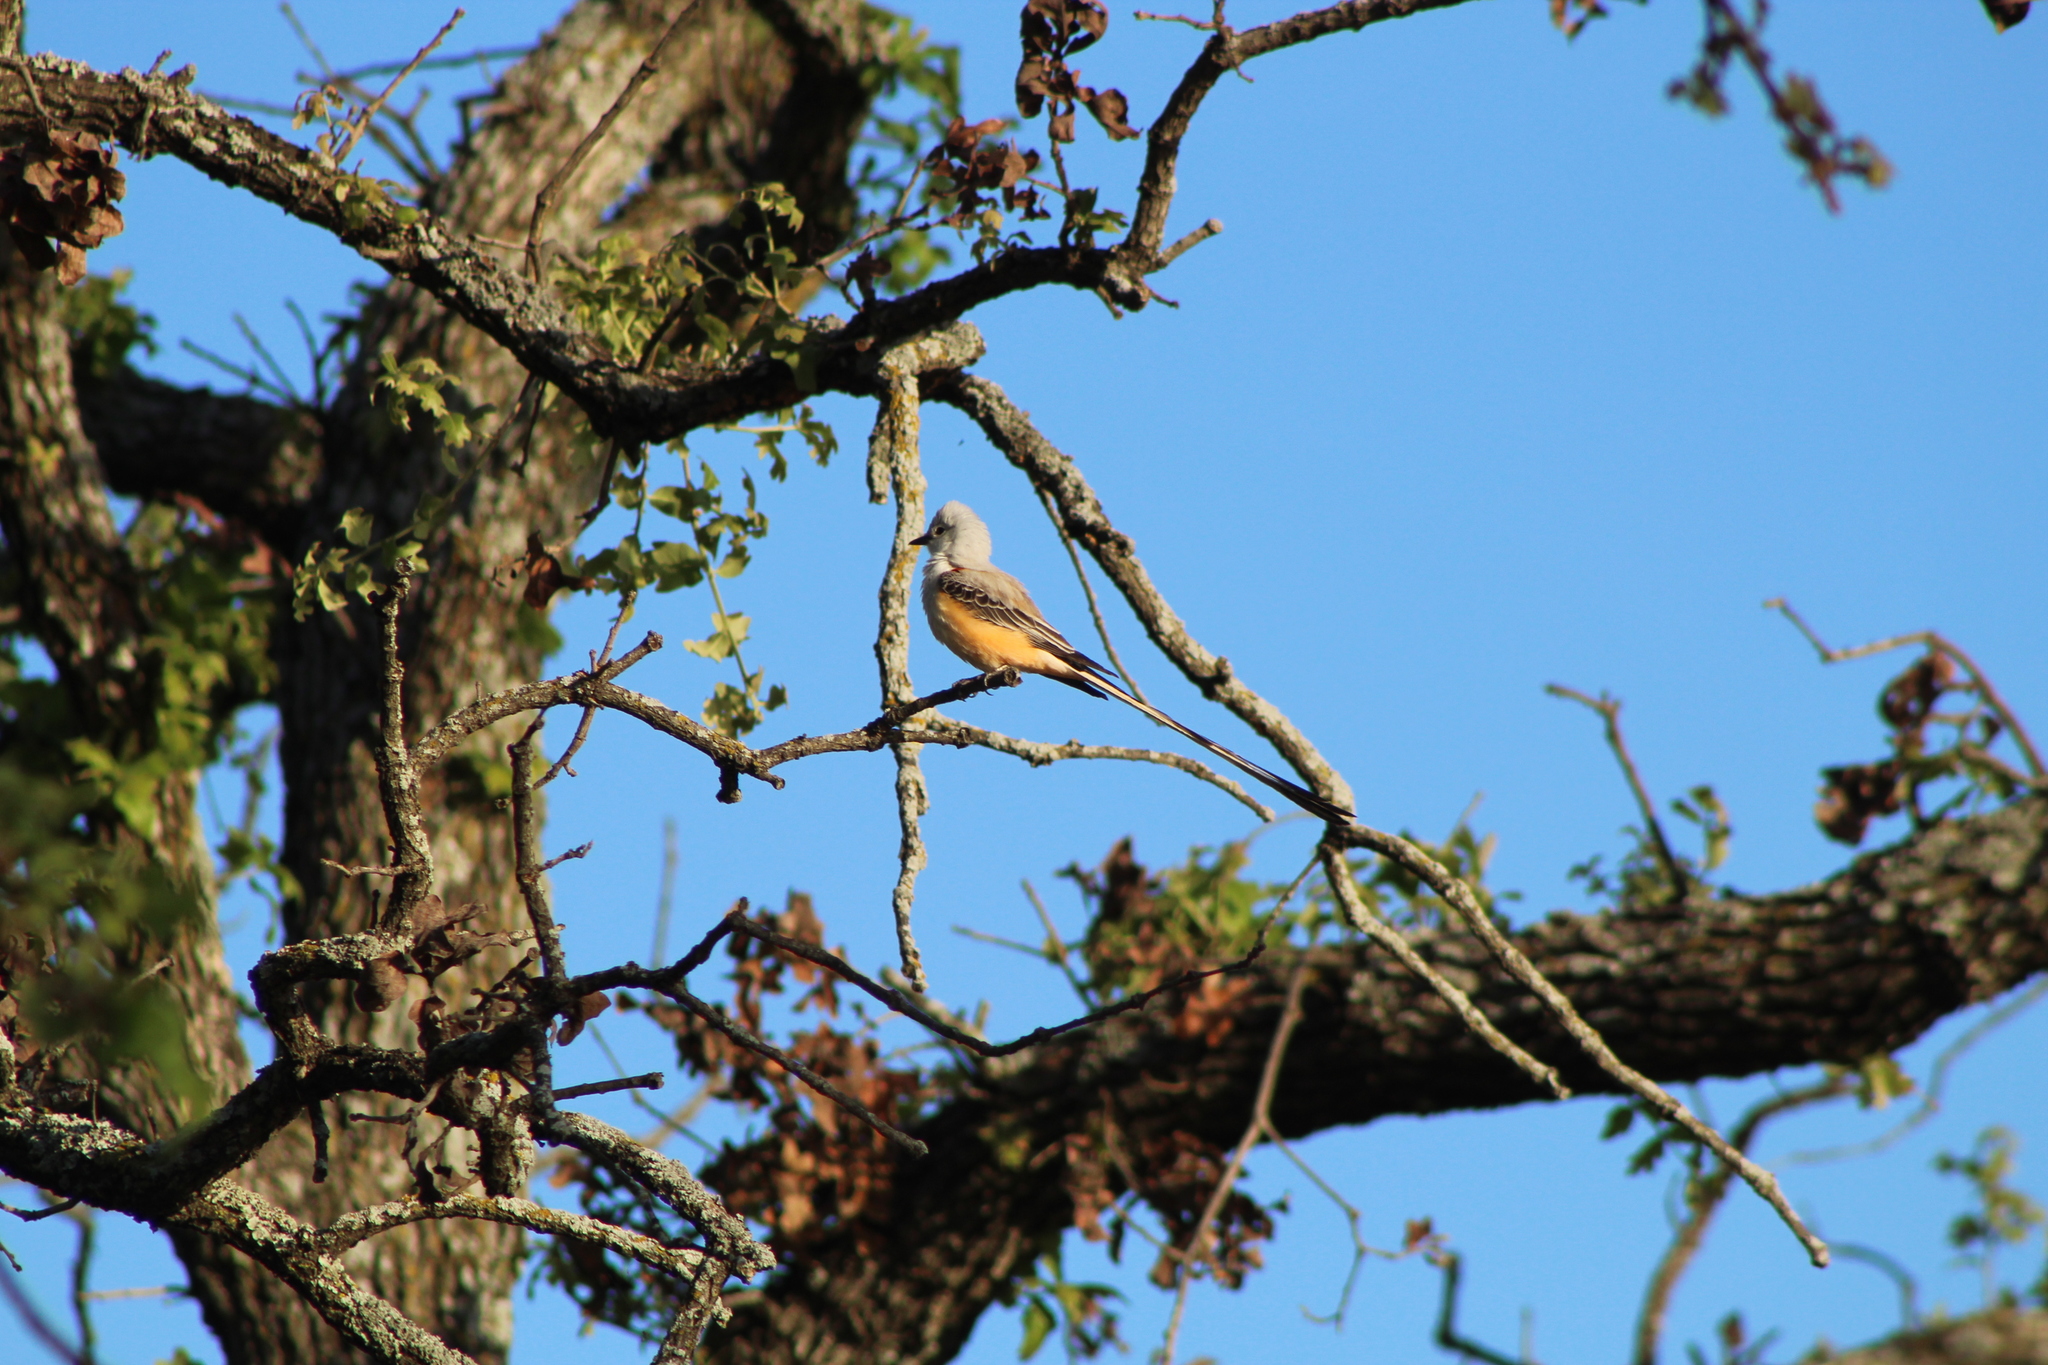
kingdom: Animalia
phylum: Chordata
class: Aves
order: Passeriformes
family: Tyrannidae
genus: Tyrannus
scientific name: Tyrannus forficatus
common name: Scissor-tailed flycatcher
